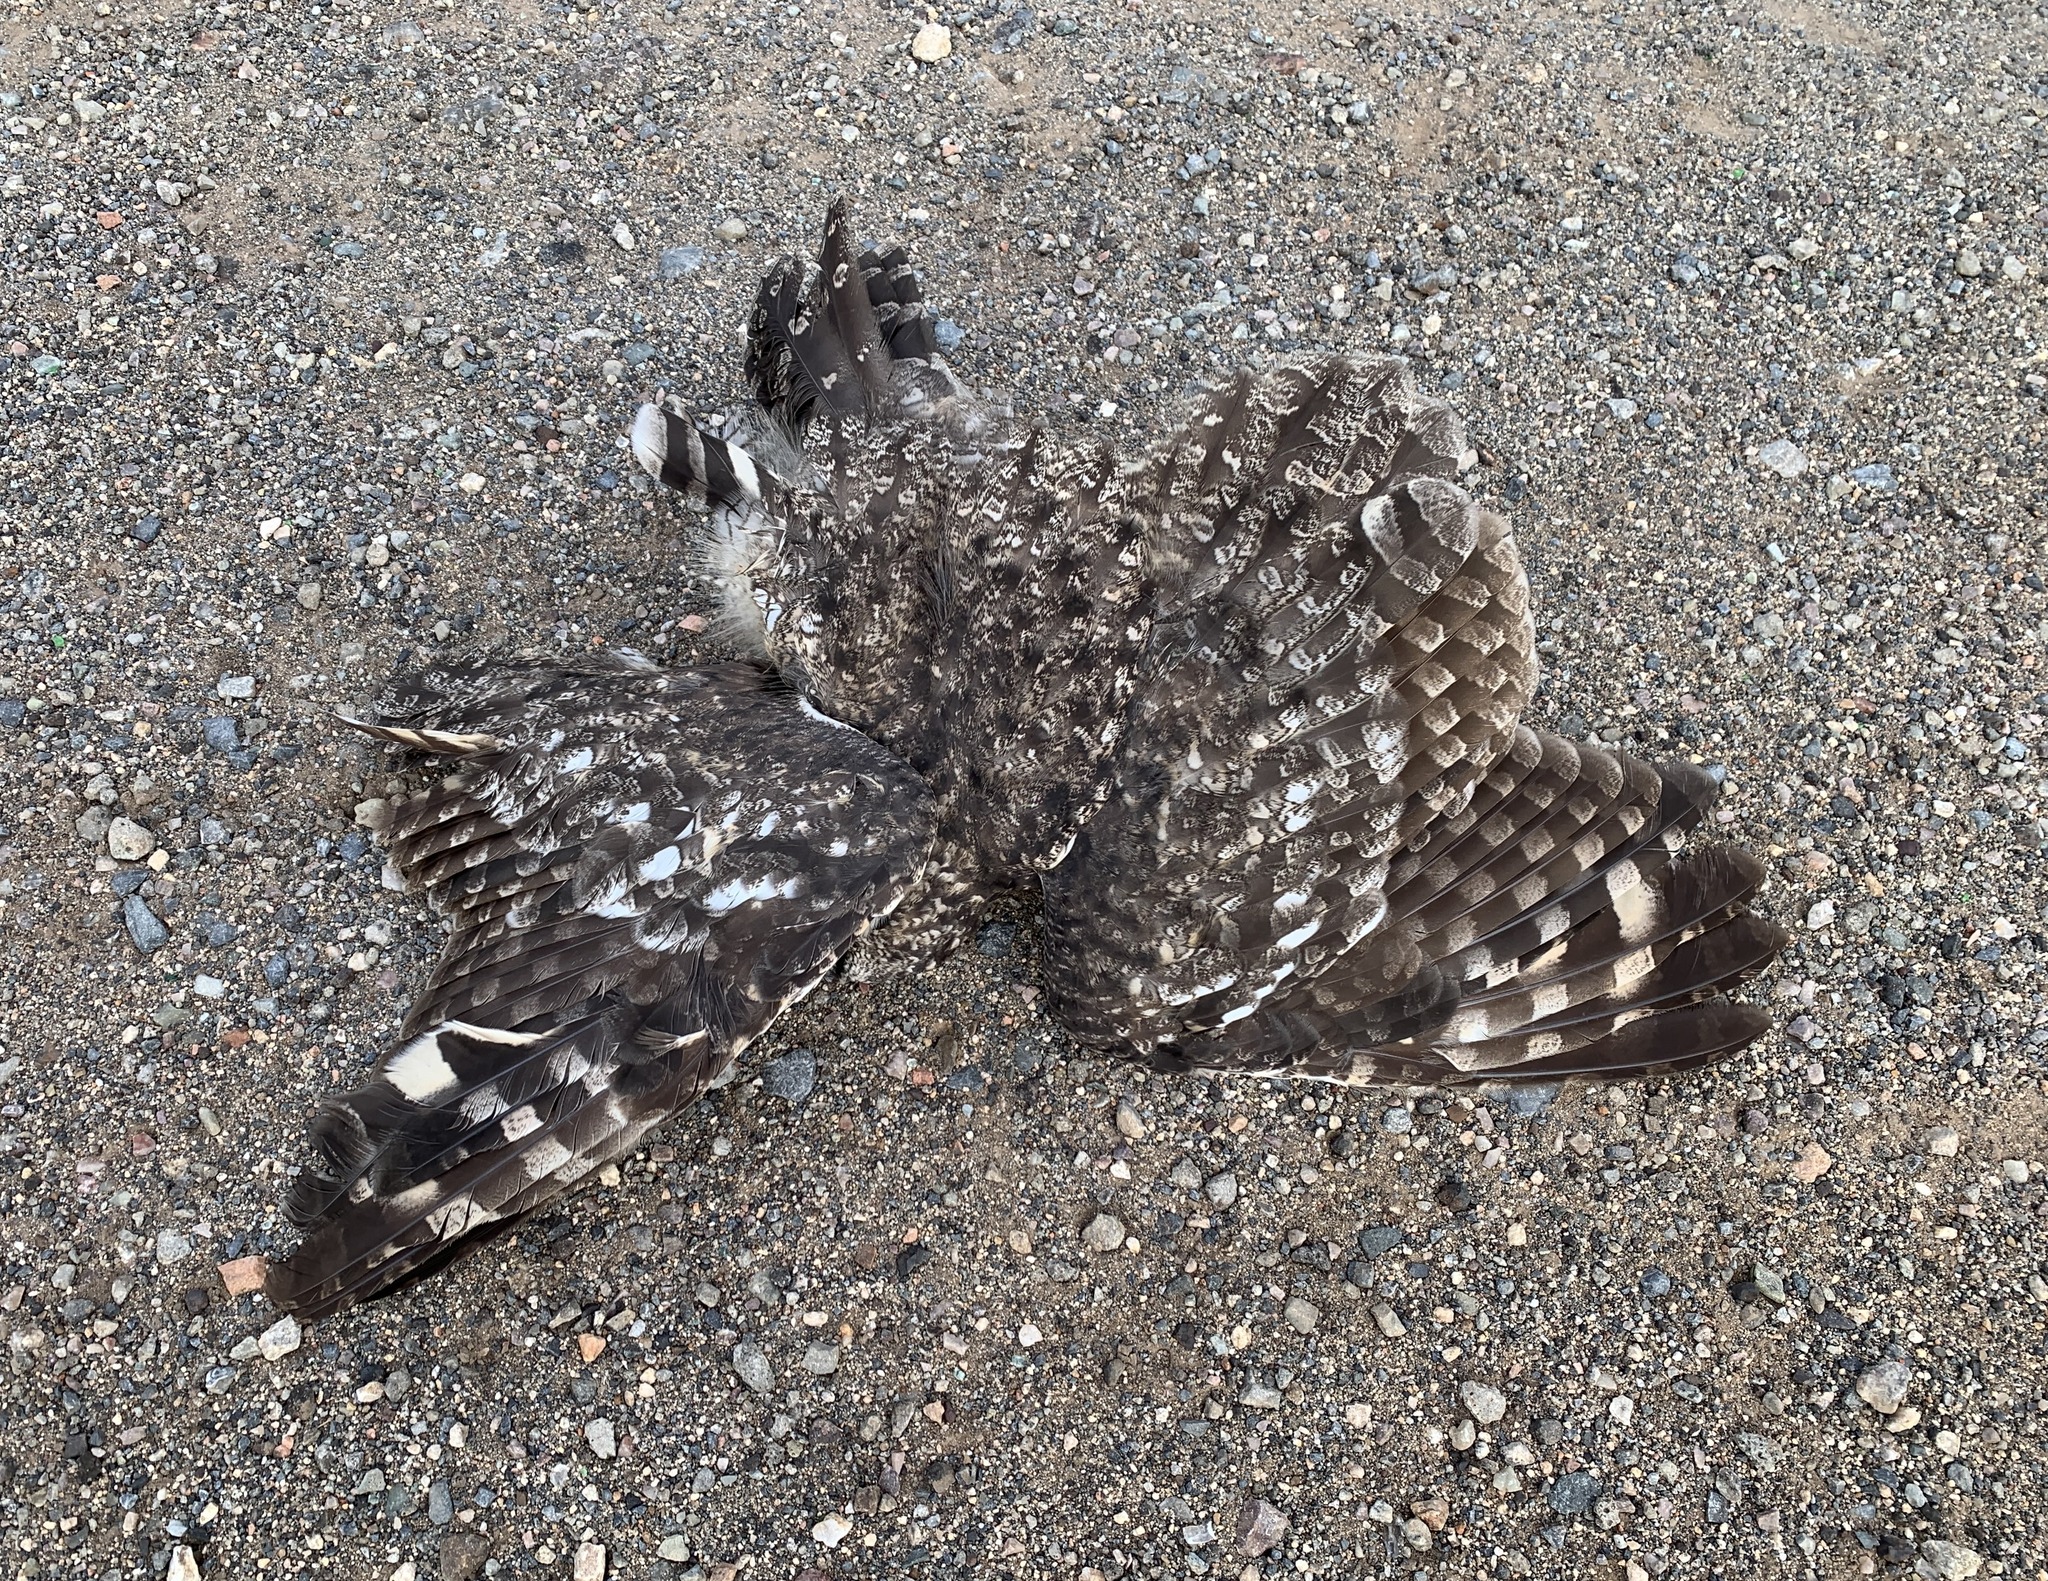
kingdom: Animalia
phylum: Chordata
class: Aves
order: Strigiformes
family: Strigidae
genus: Bubo
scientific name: Bubo africanus
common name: Spotted eagle-owl
